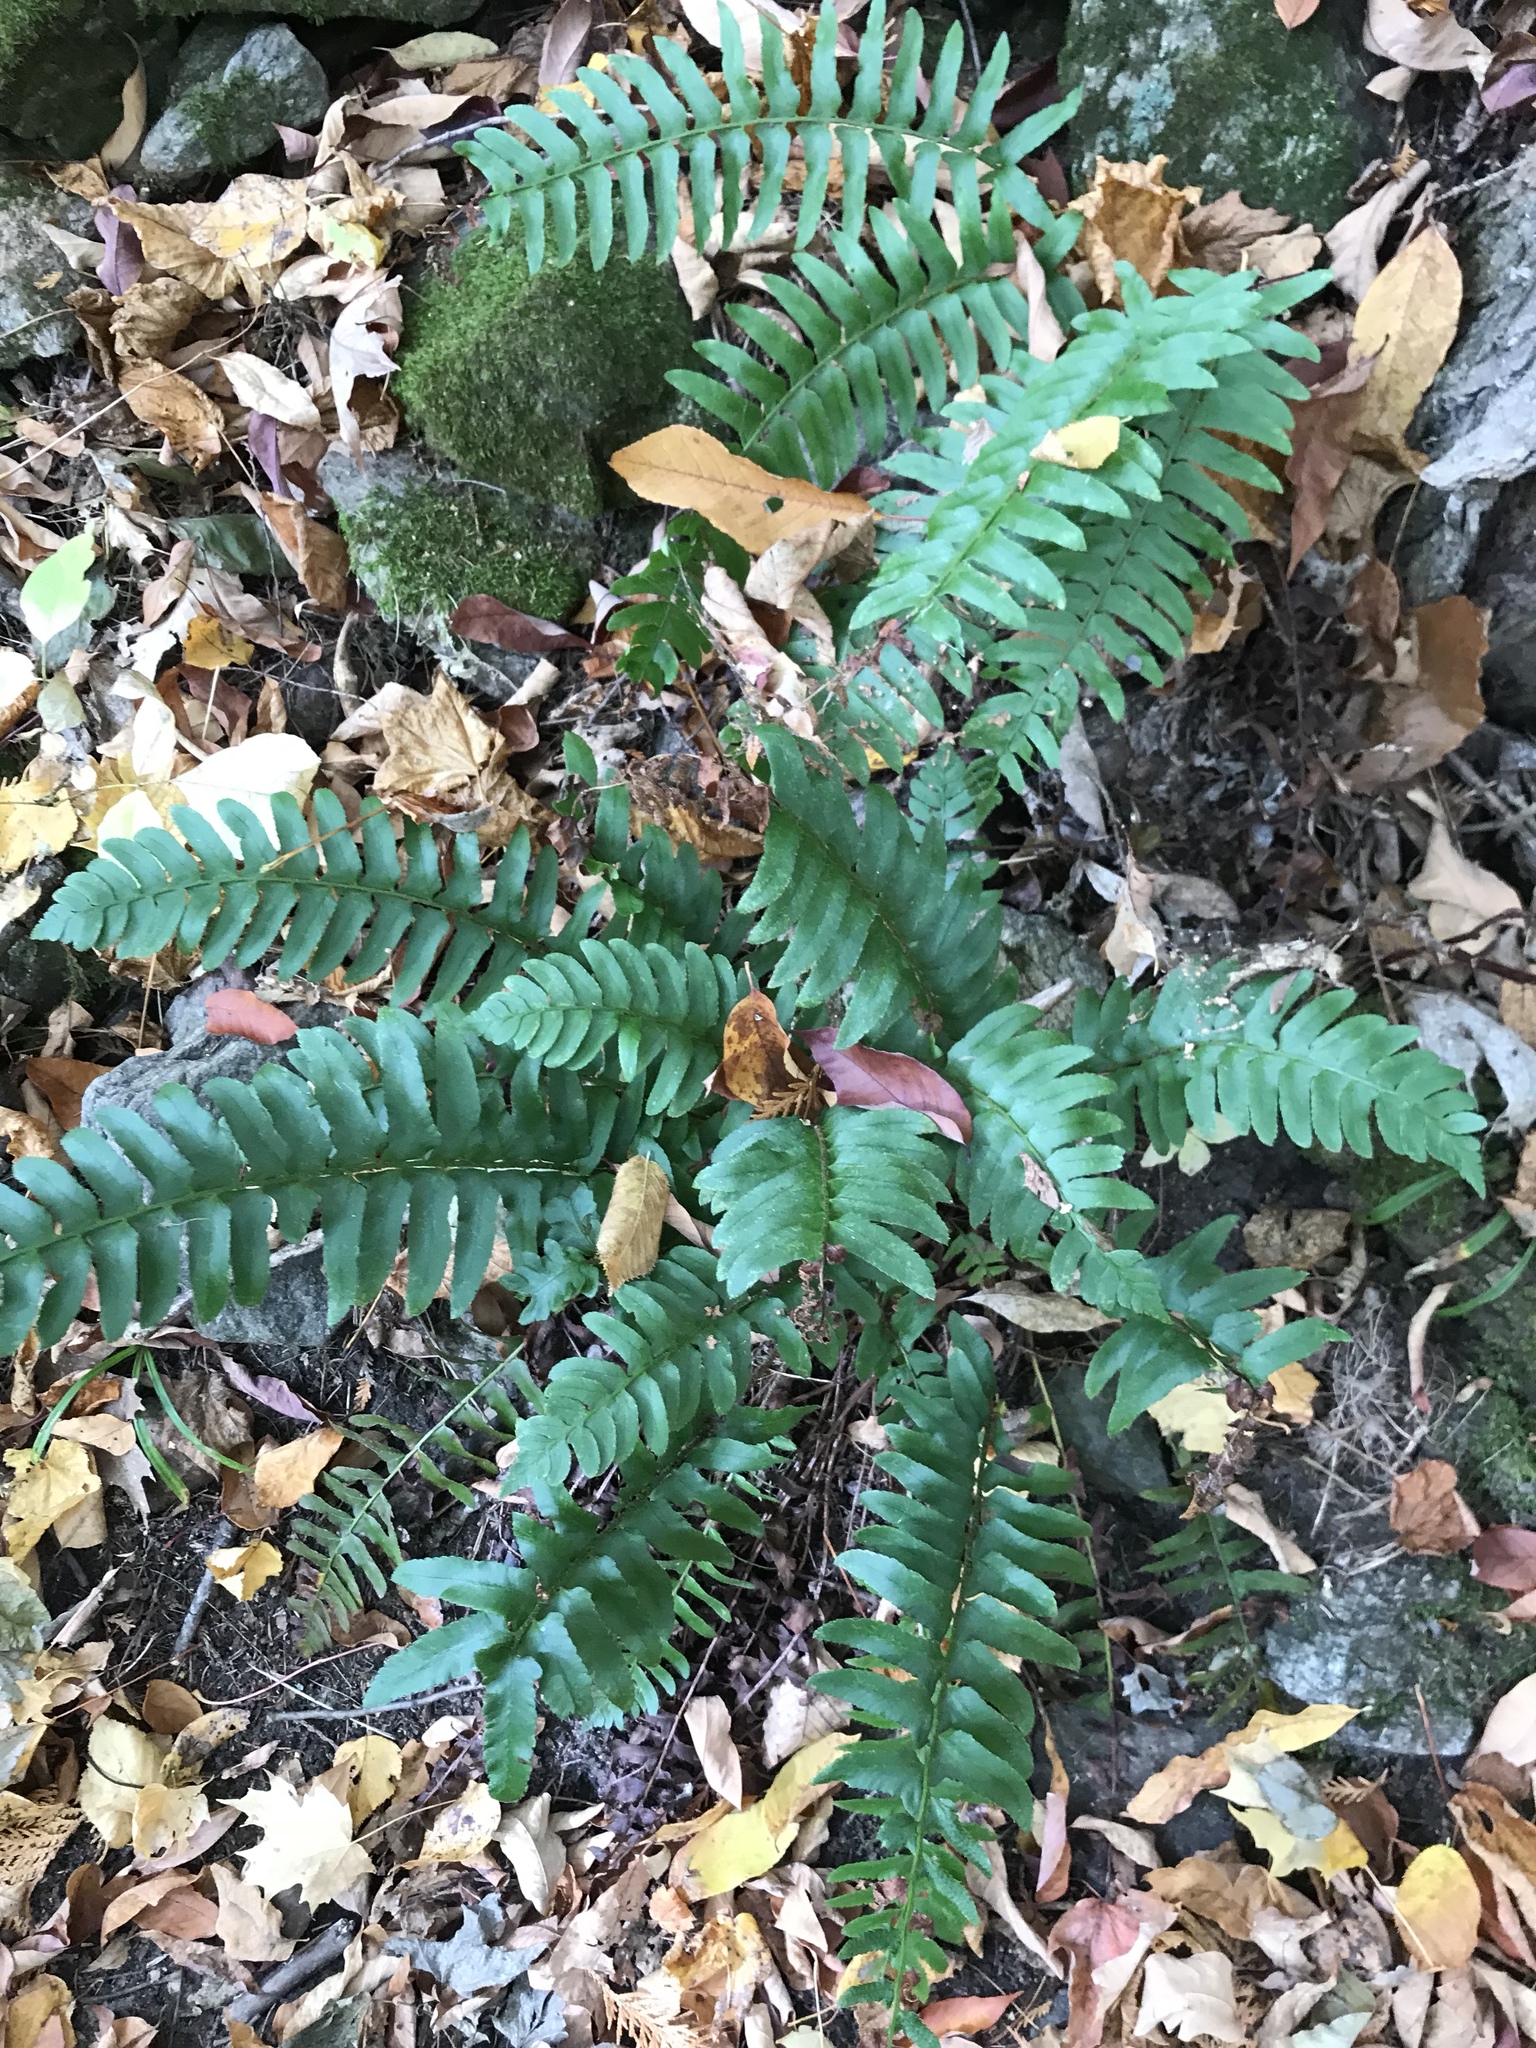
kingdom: Plantae
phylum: Tracheophyta
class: Polypodiopsida
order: Polypodiales
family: Dryopteridaceae
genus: Polystichum
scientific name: Polystichum acrostichoides
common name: Christmas fern
